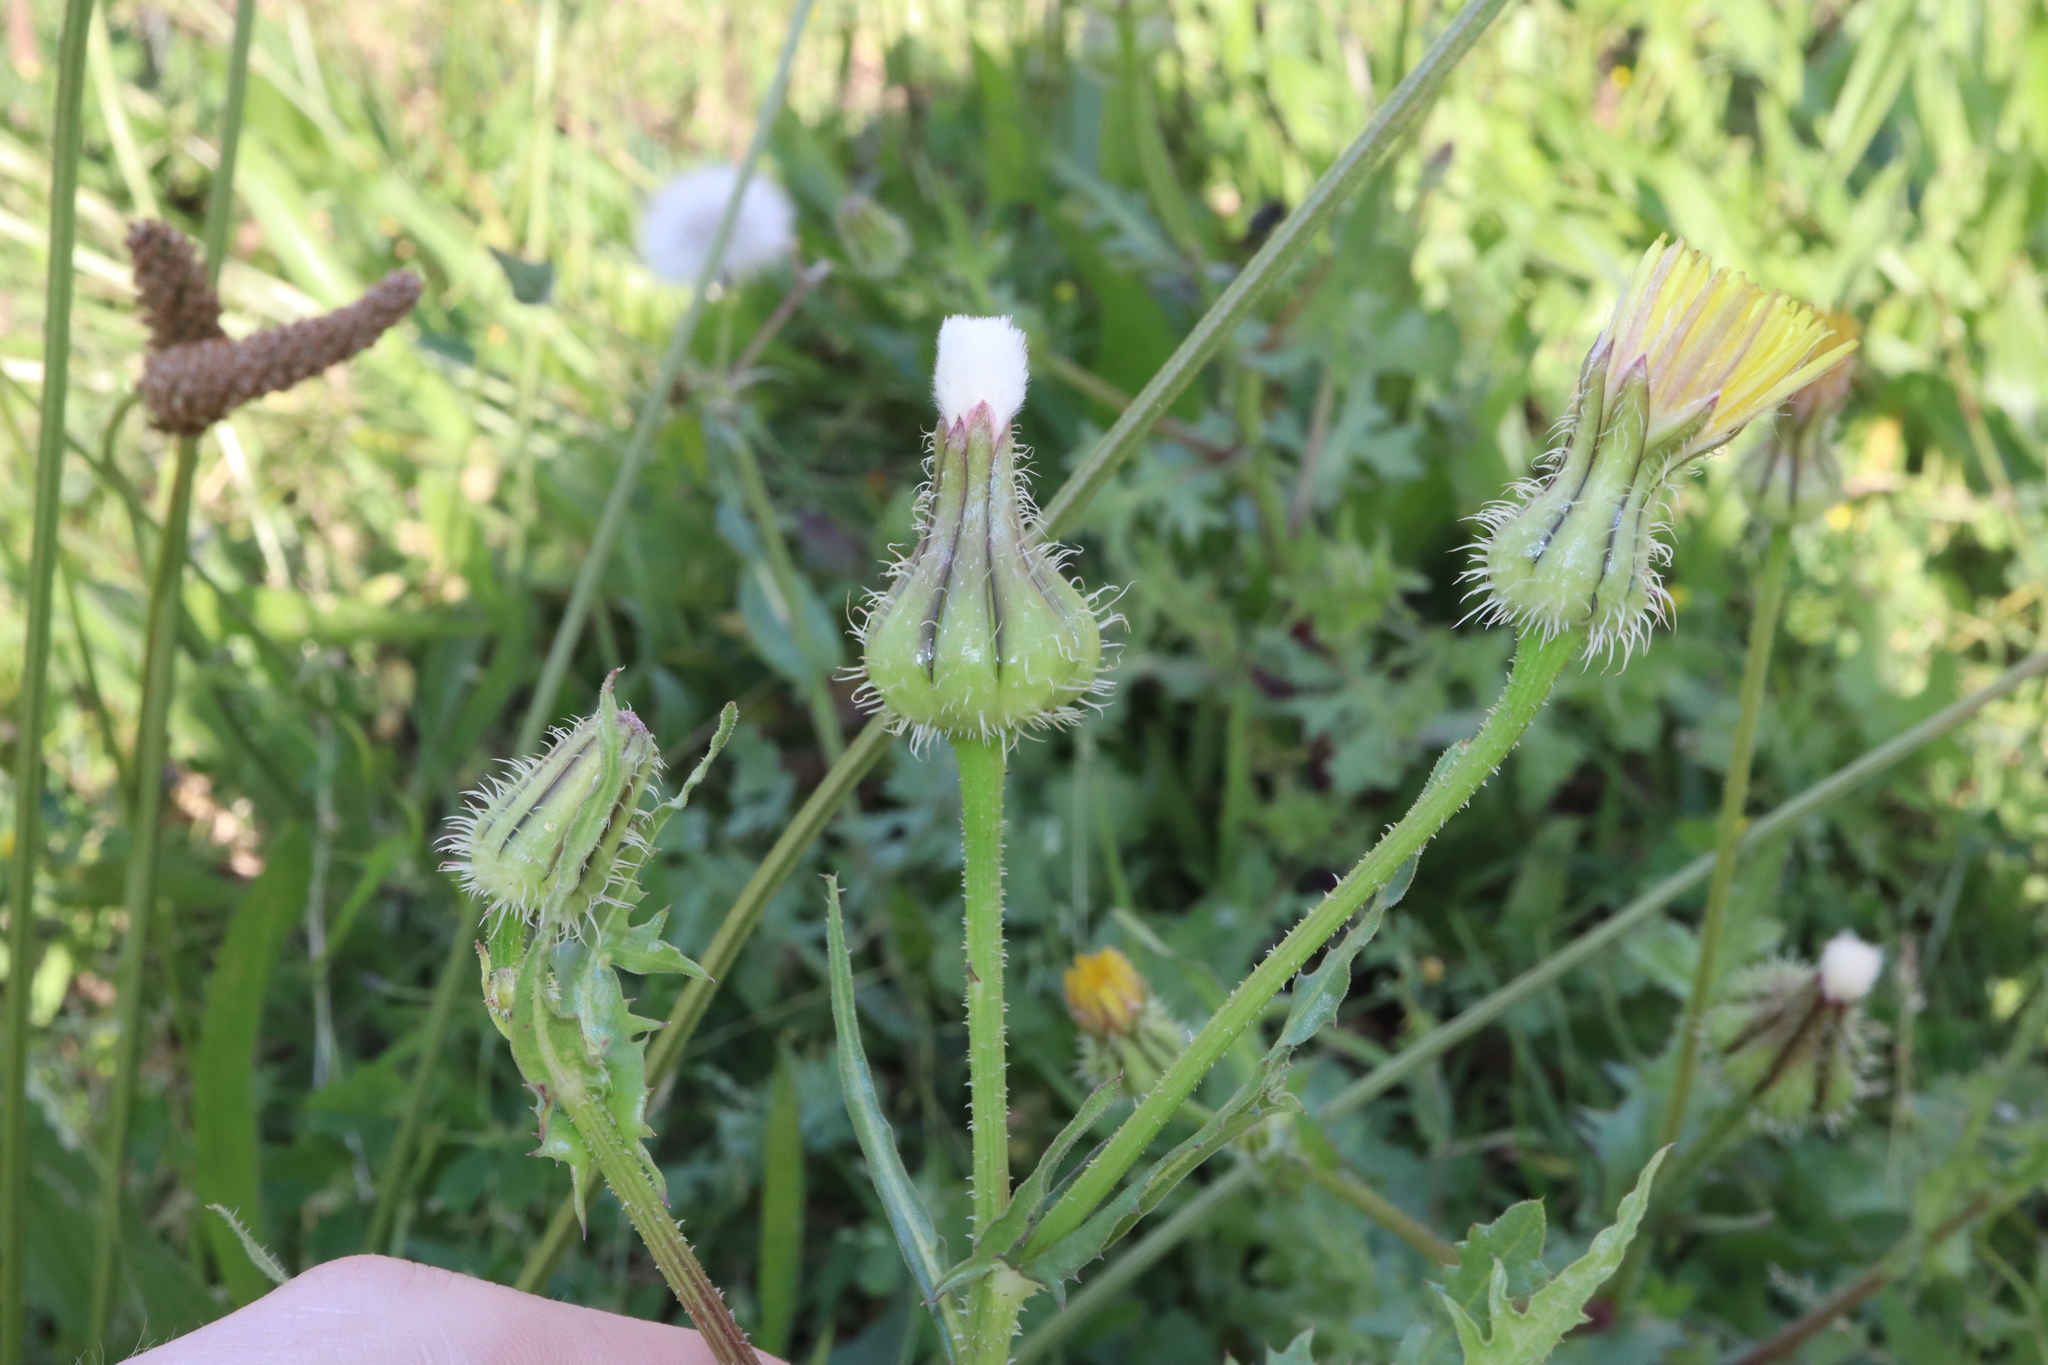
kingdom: Plantae
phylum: Tracheophyta
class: Magnoliopsida
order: Asterales
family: Asteraceae
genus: Urospermum
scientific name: Urospermum picroides
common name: False hawkbit
